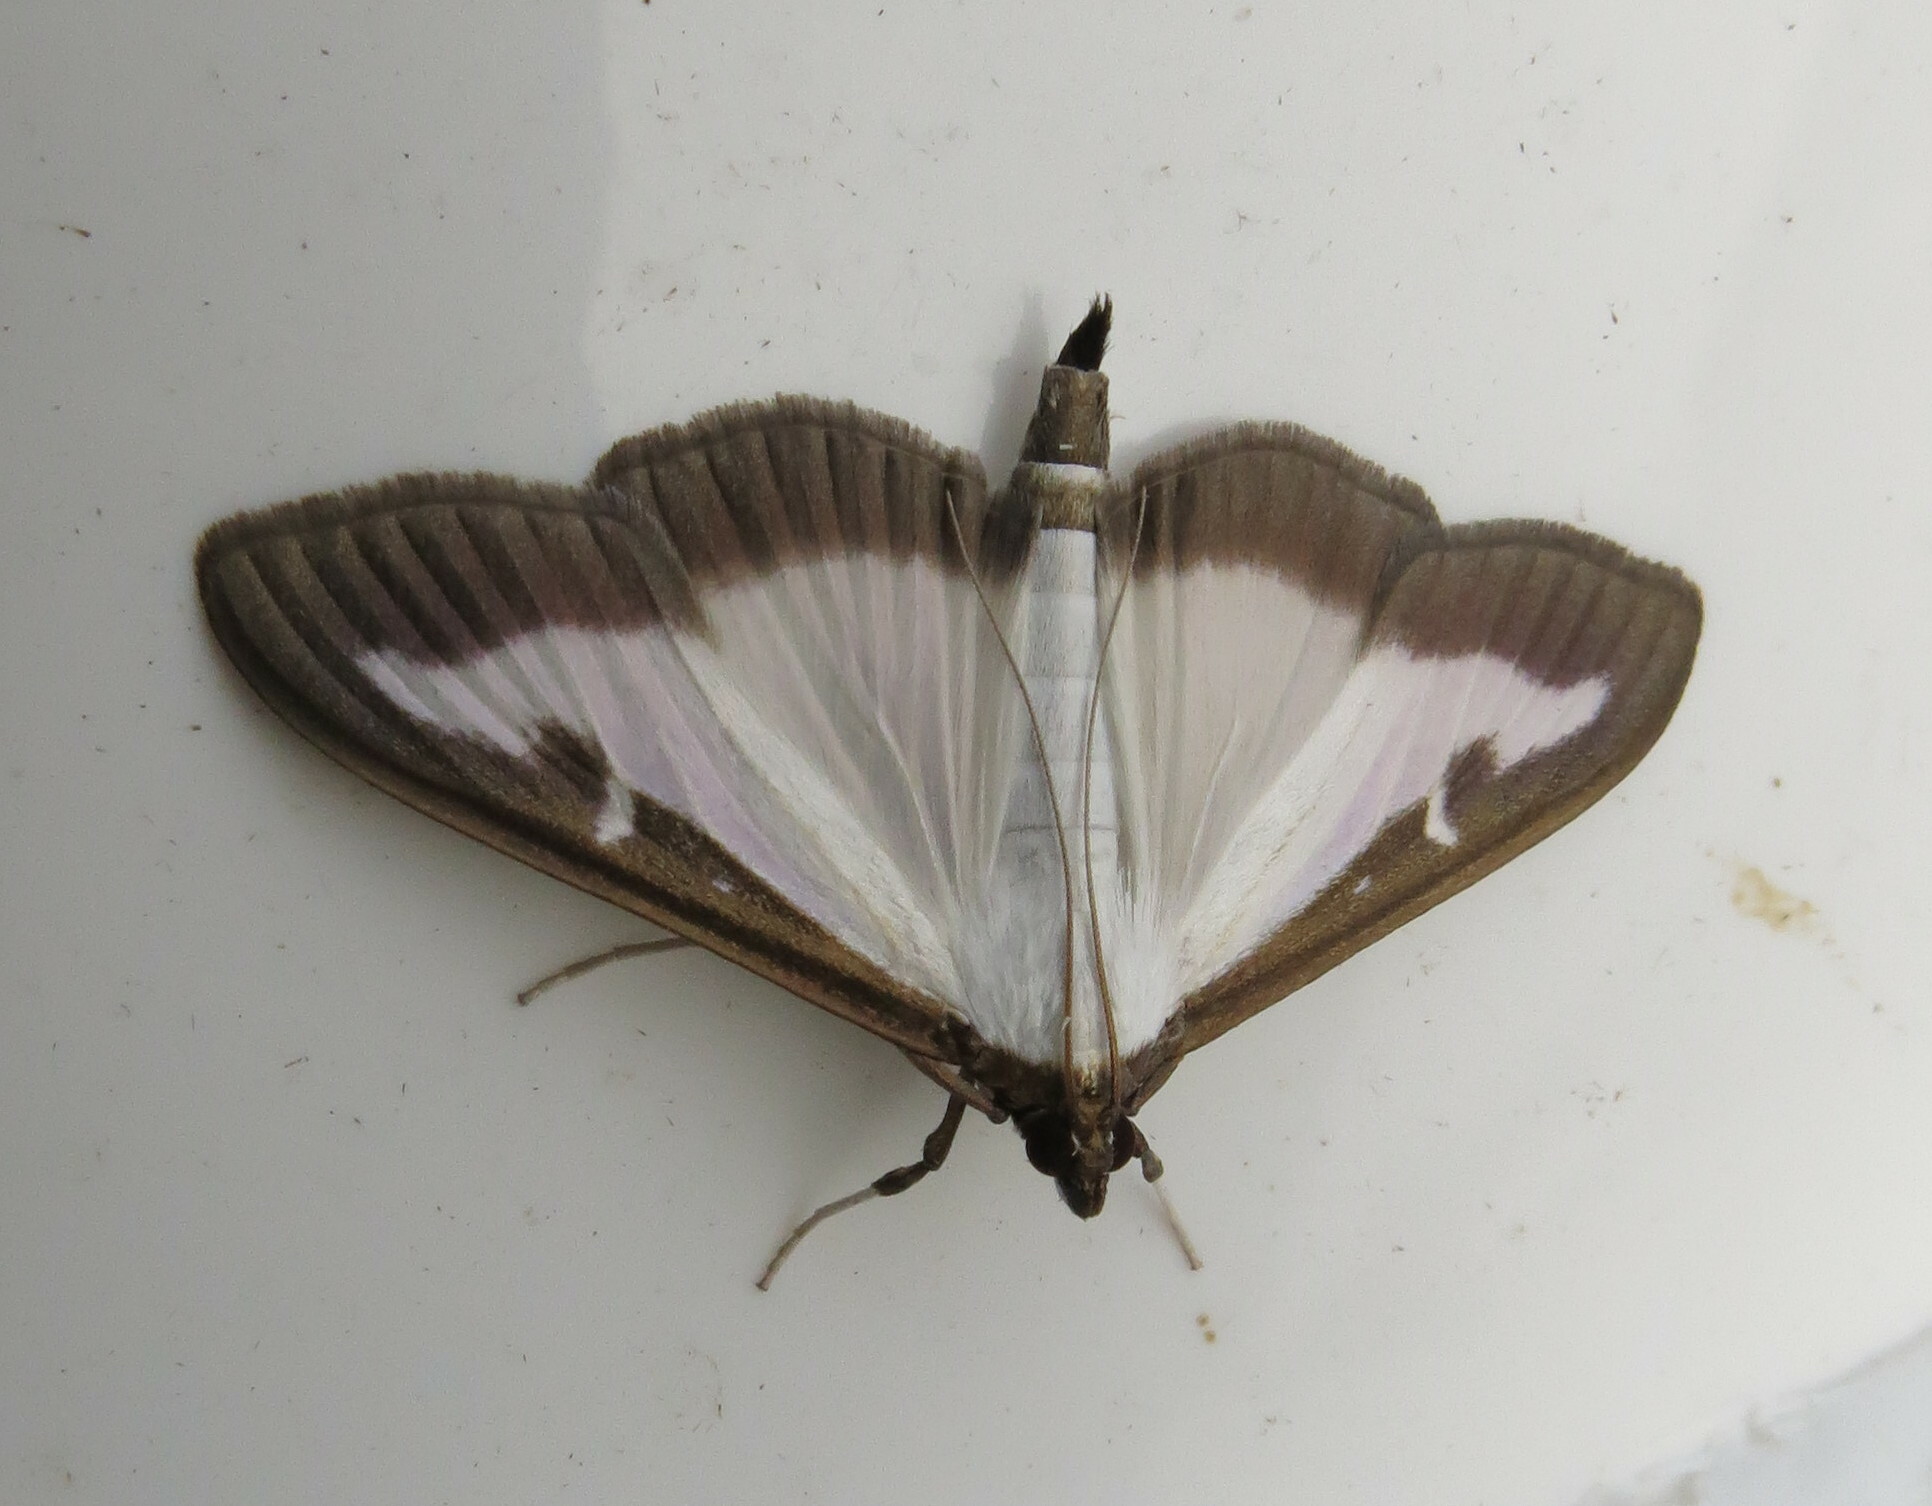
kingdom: Animalia
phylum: Arthropoda
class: Insecta
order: Lepidoptera
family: Crambidae
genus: Cydalima
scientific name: Cydalima perspectalis
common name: Box tree moth
